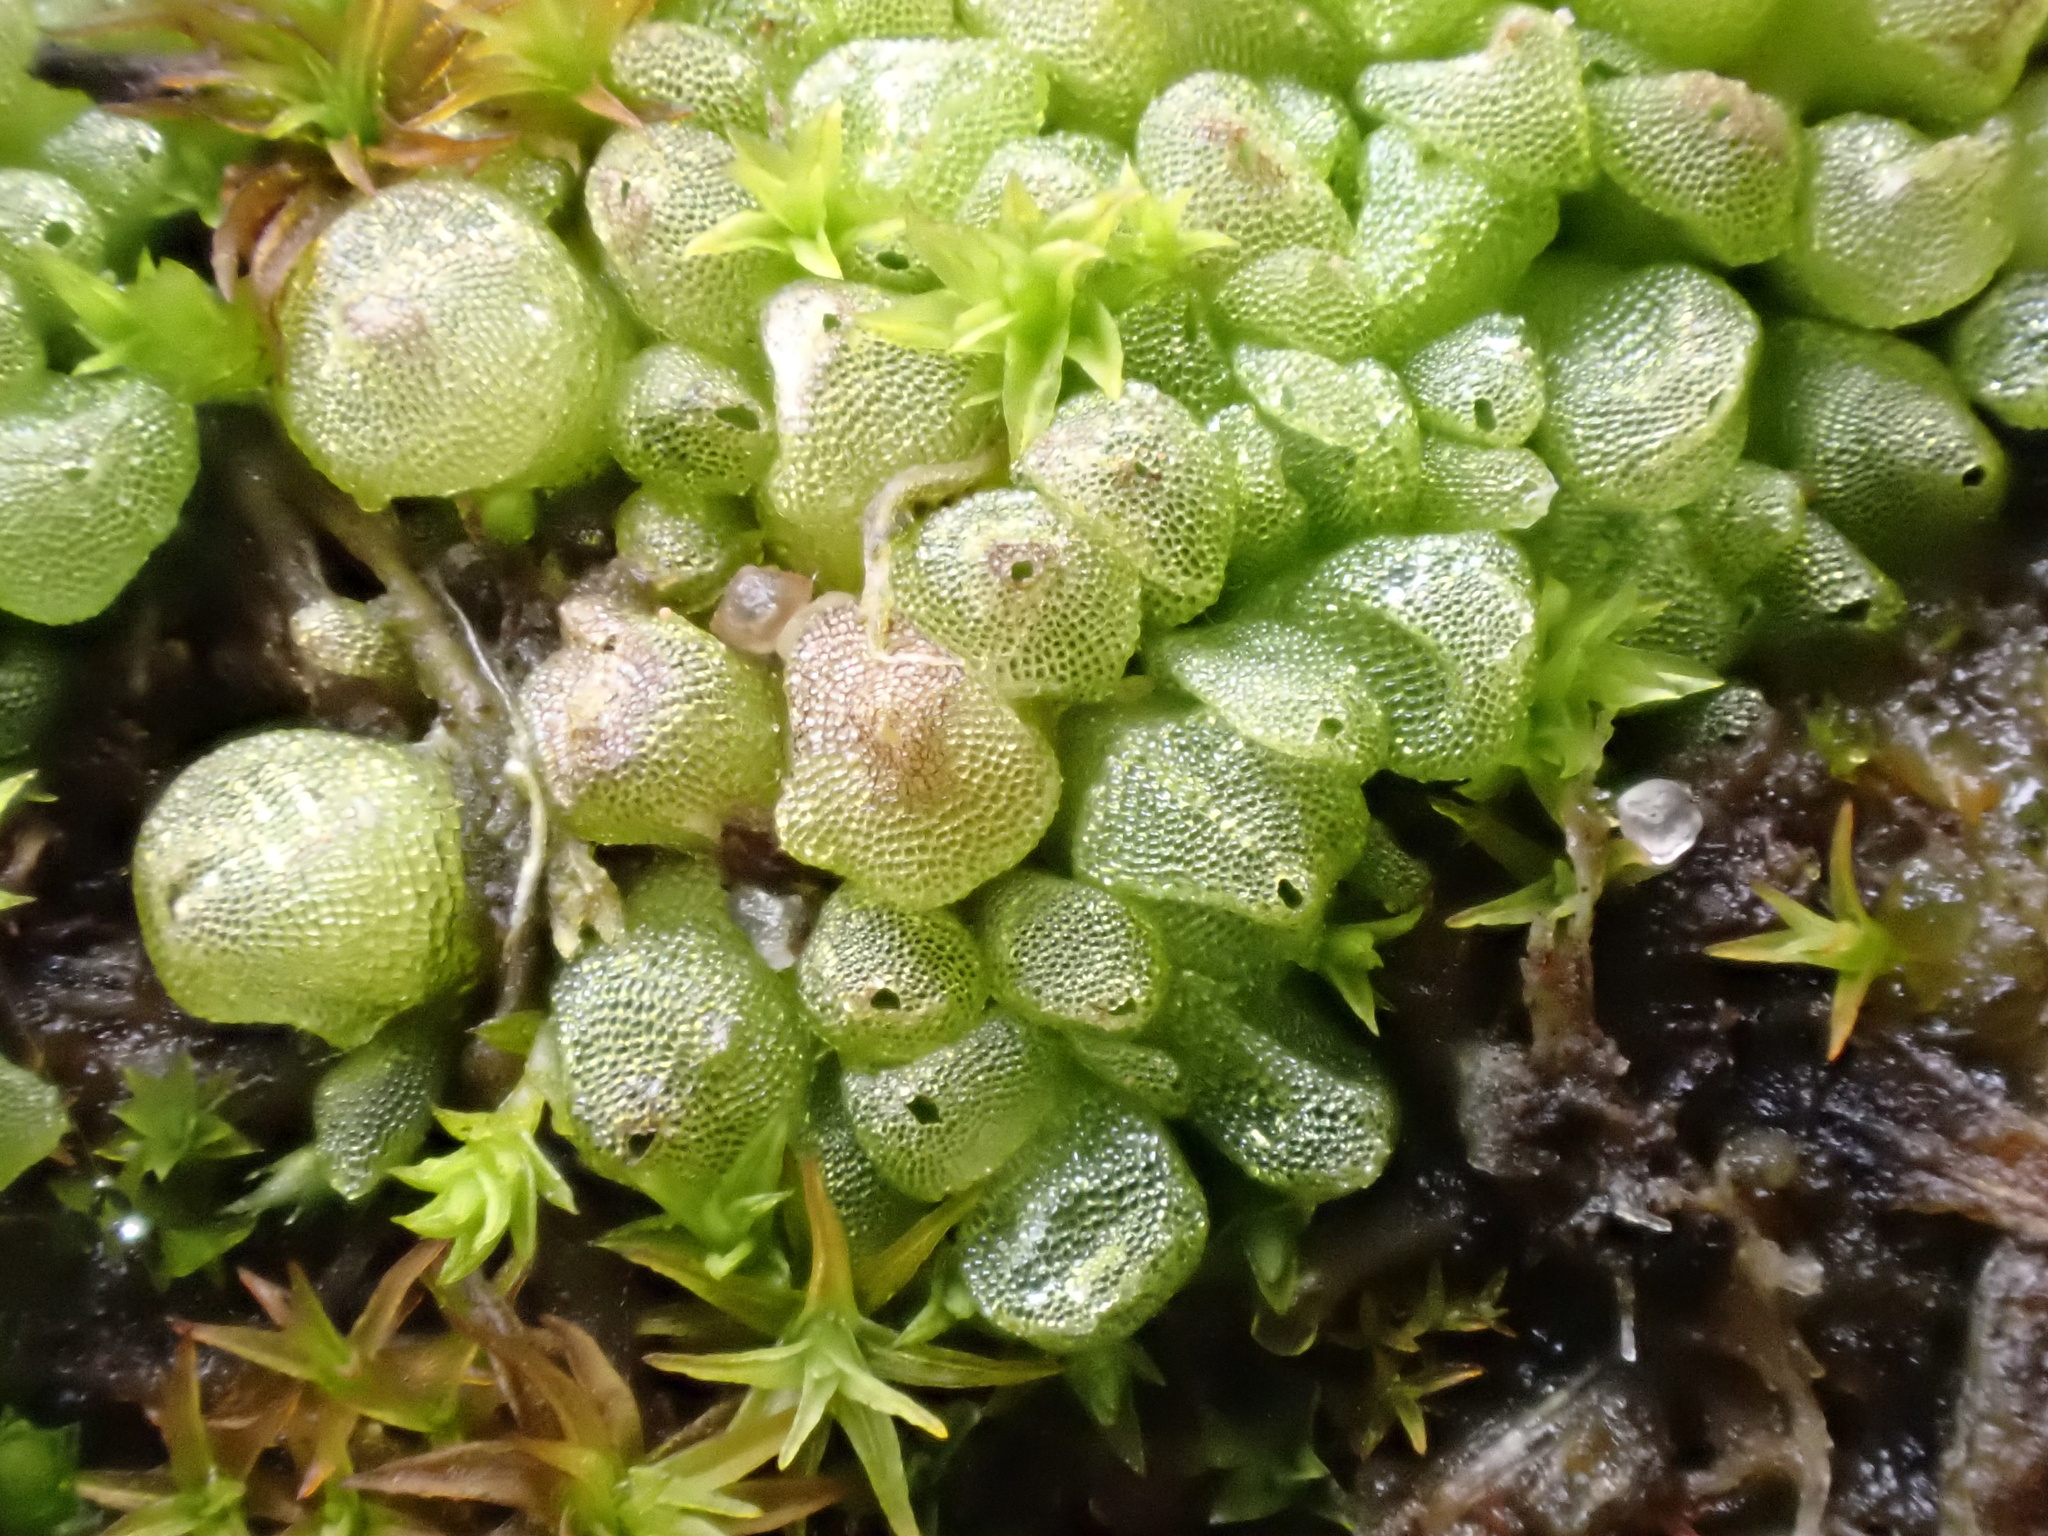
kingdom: Plantae
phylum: Marchantiophyta
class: Marchantiopsida
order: Sphaerocarpales
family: Sphaerocarpaceae
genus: Sphaerocarpos
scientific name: Sphaerocarpos michelii
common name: Micheli's balloonwort
